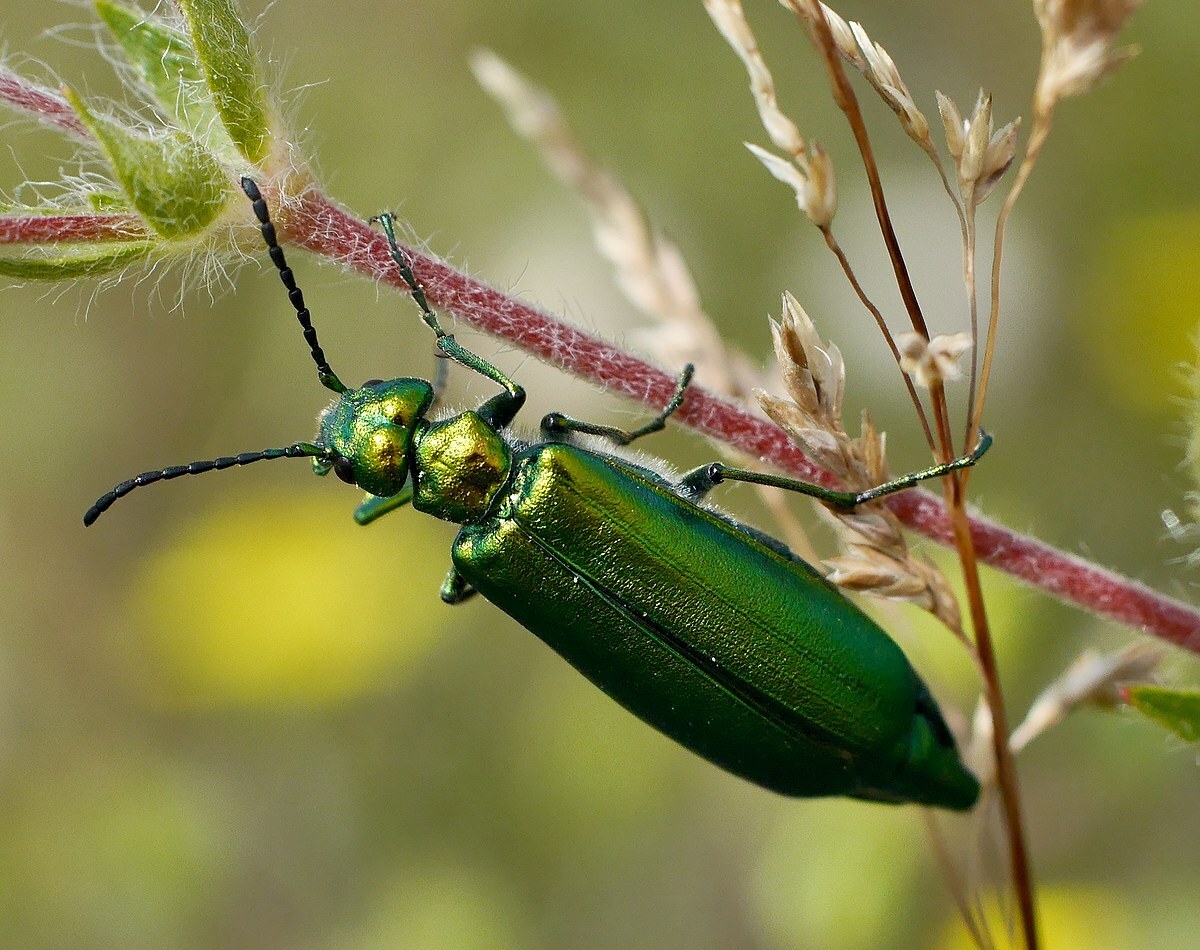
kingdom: Animalia
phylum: Arthropoda
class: Insecta
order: Coleoptera
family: Meloidae
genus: Lytta
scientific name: Lytta vesicatoria
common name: Spanish fly
